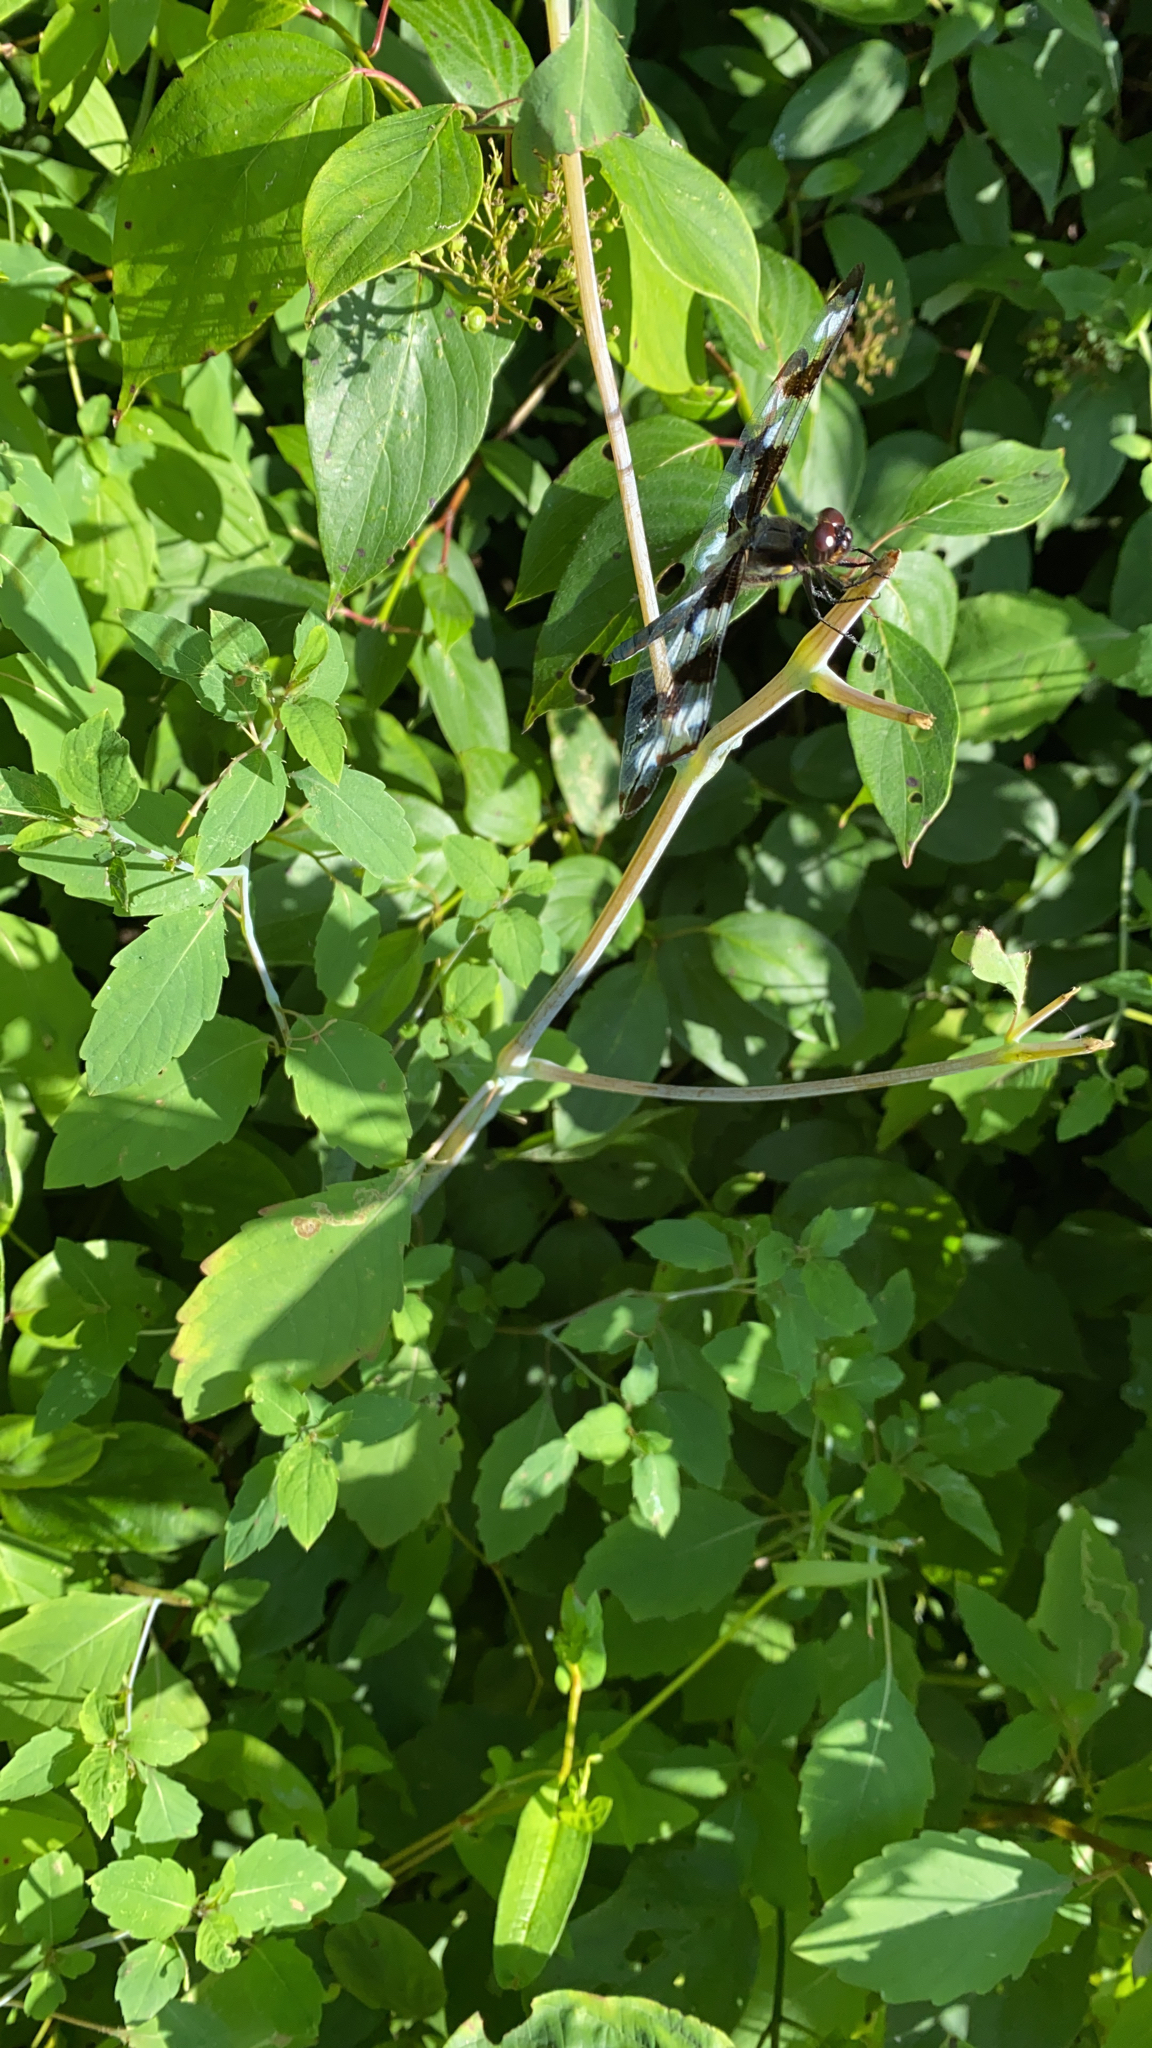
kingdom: Animalia
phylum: Arthropoda
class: Insecta
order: Odonata
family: Libellulidae
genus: Libellula
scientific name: Libellula pulchella
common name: Twelve-spotted skimmer
